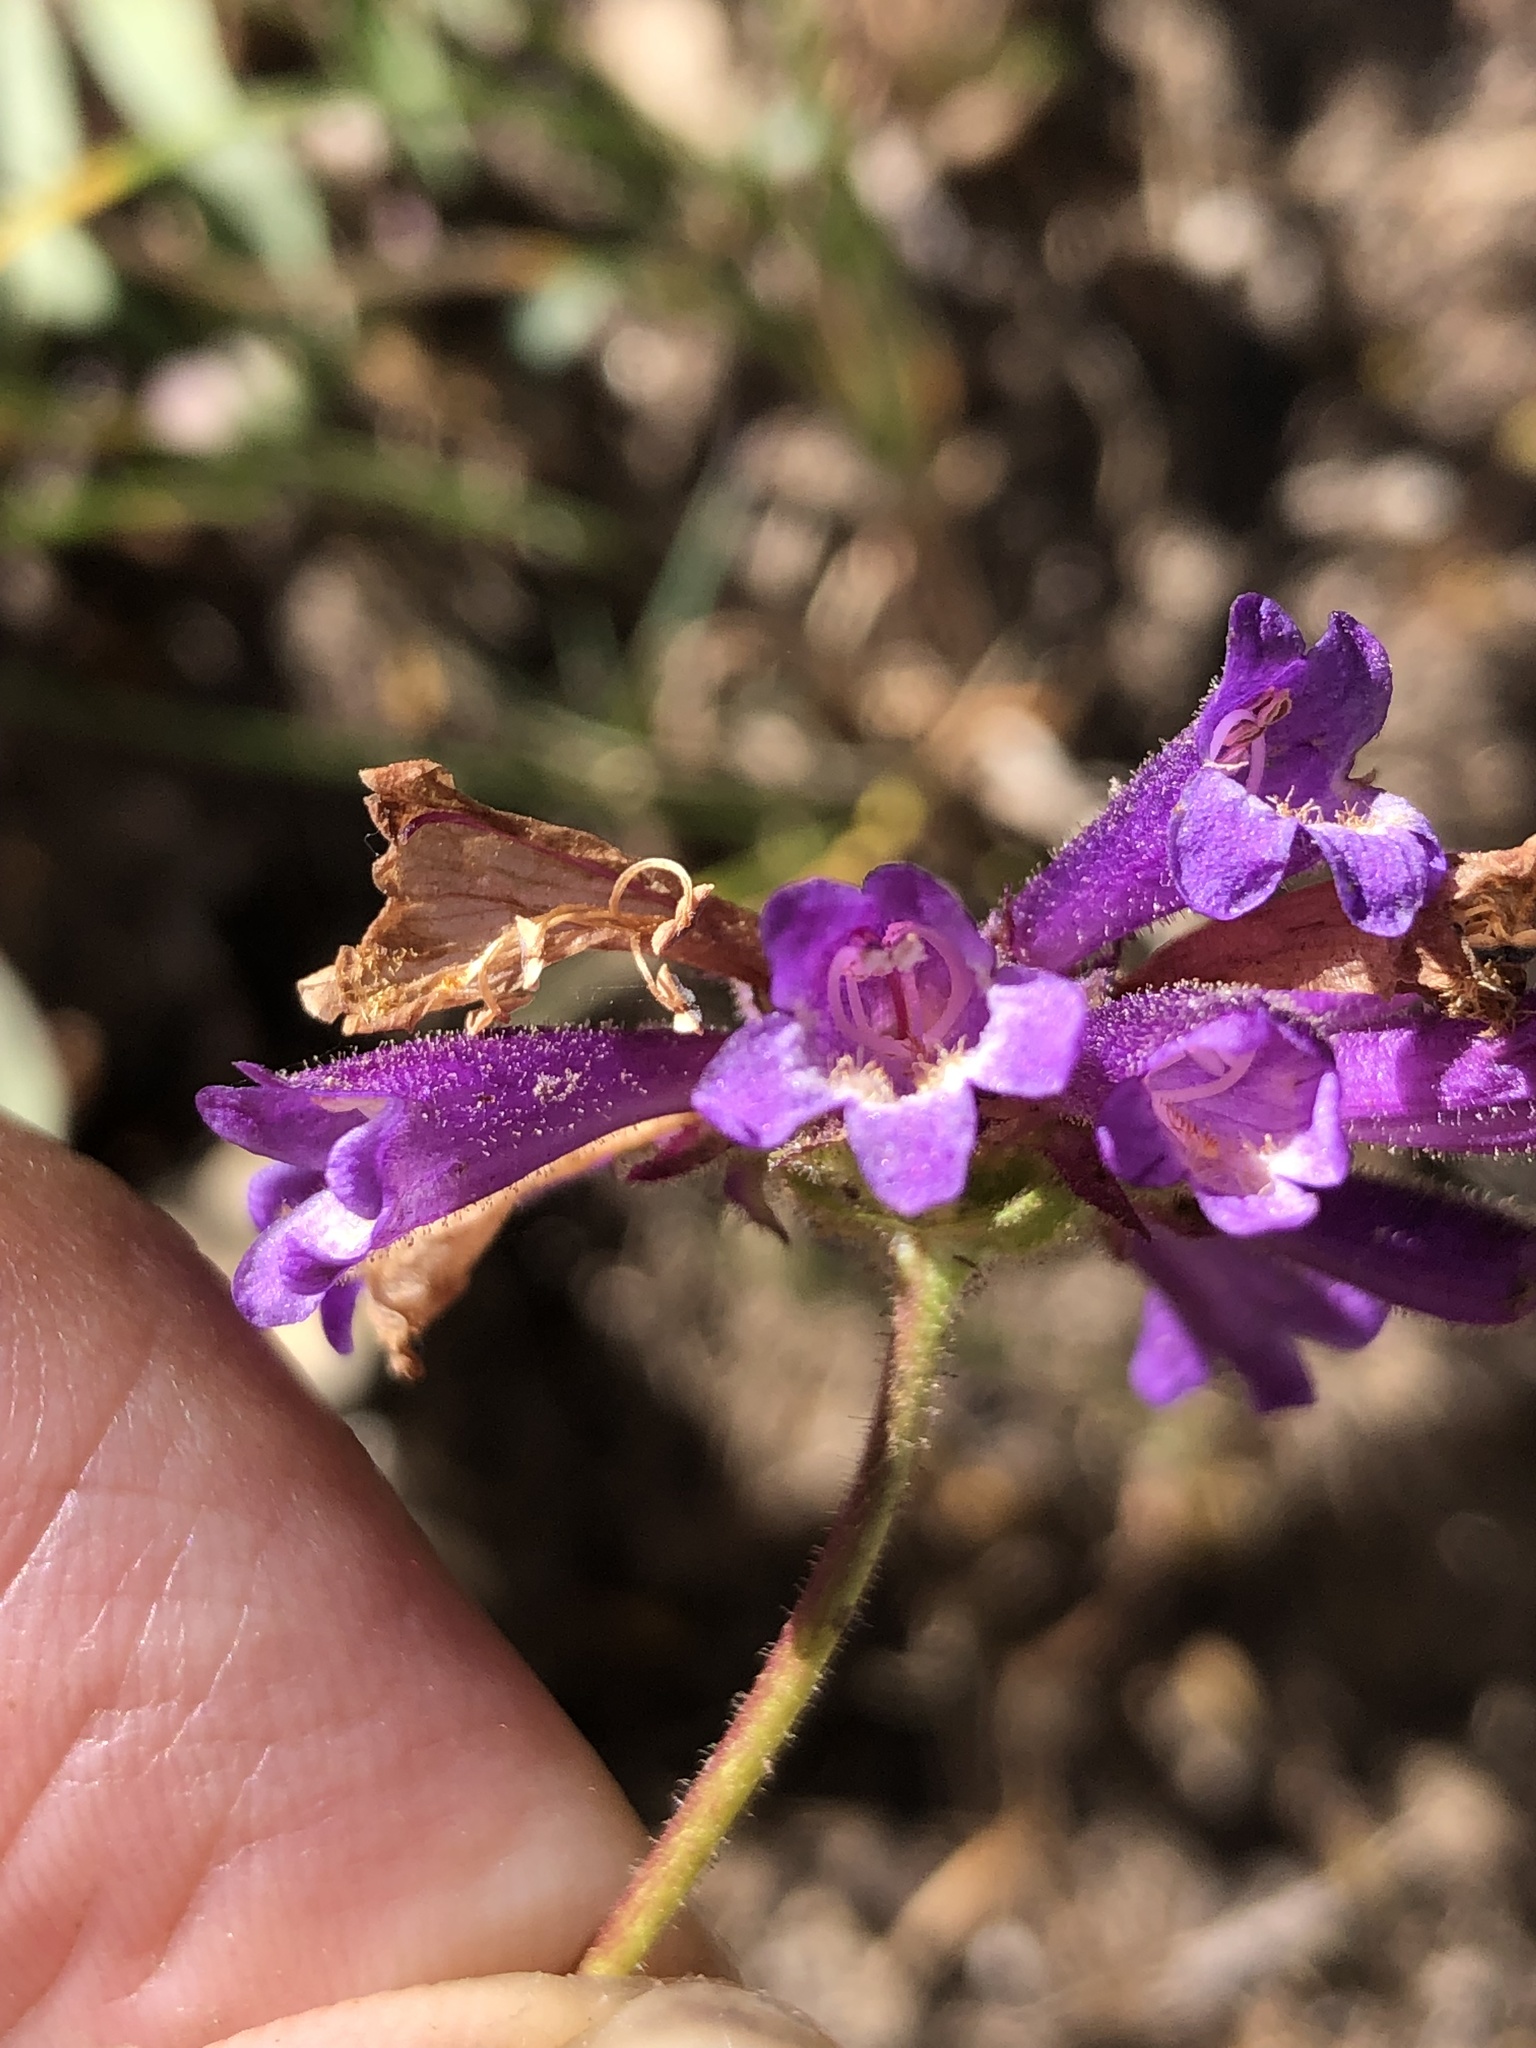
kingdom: Plantae
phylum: Tracheophyta
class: Magnoliopsida
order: Lamiales
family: Plantaginaceae
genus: Penstemon
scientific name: Penstemon heterodoxus
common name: Sierran penstemon
